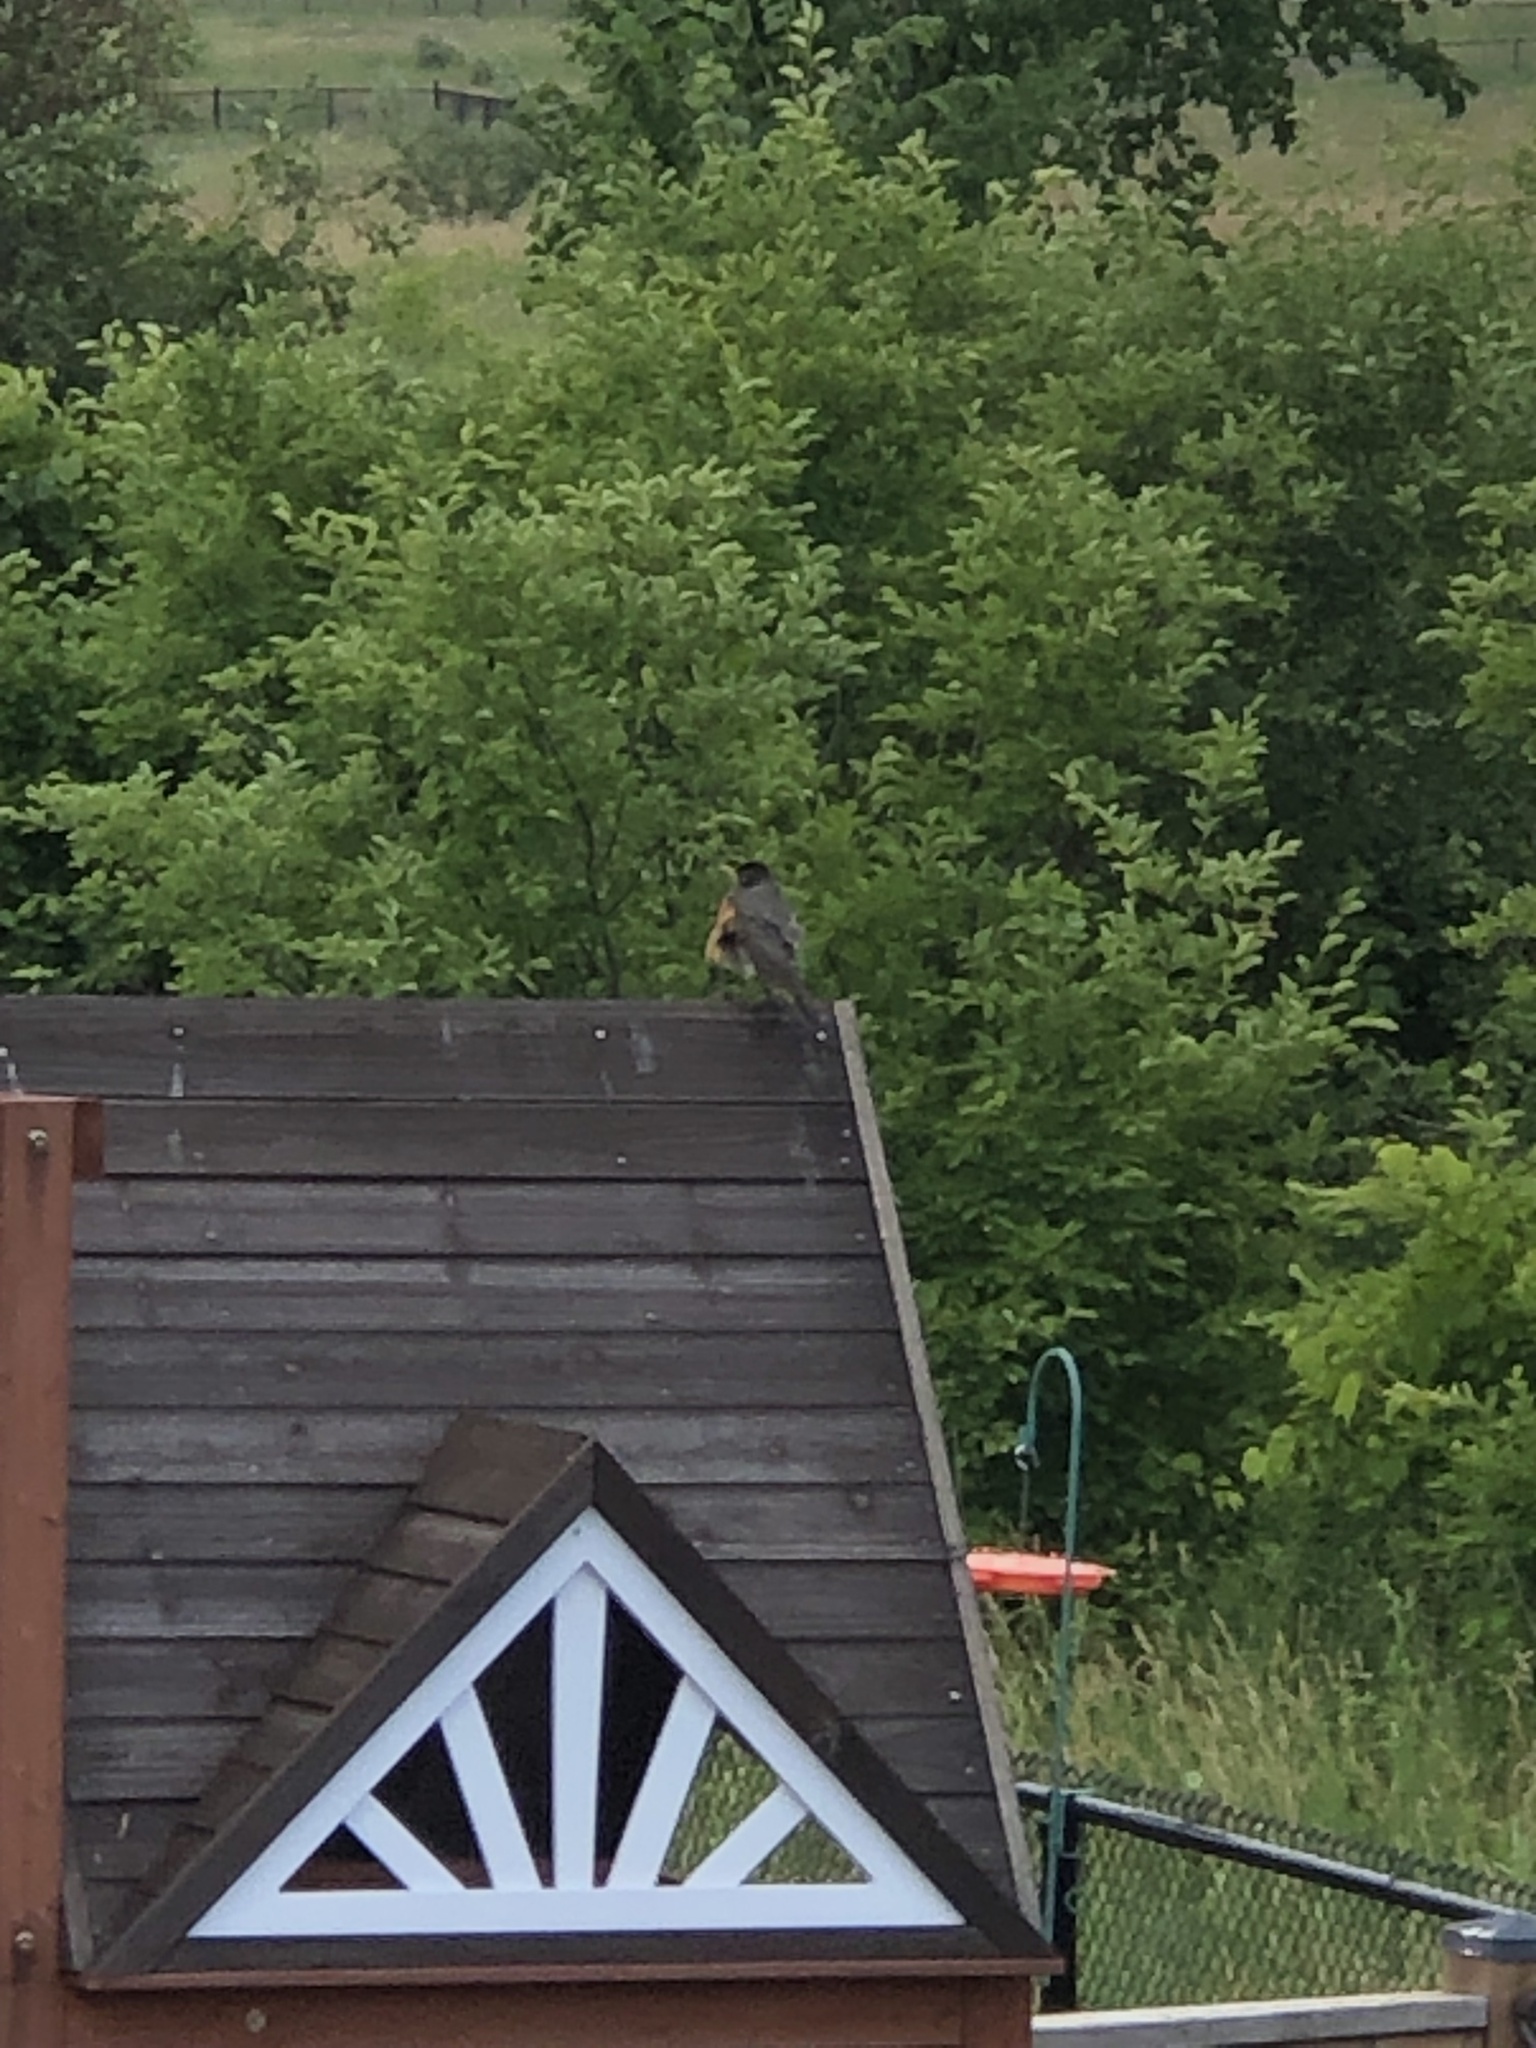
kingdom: Animalia
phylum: Chordata
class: Aves
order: Passeriformes
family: Turdidae
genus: Turdus
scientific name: Turdus migratorius
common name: American robin
